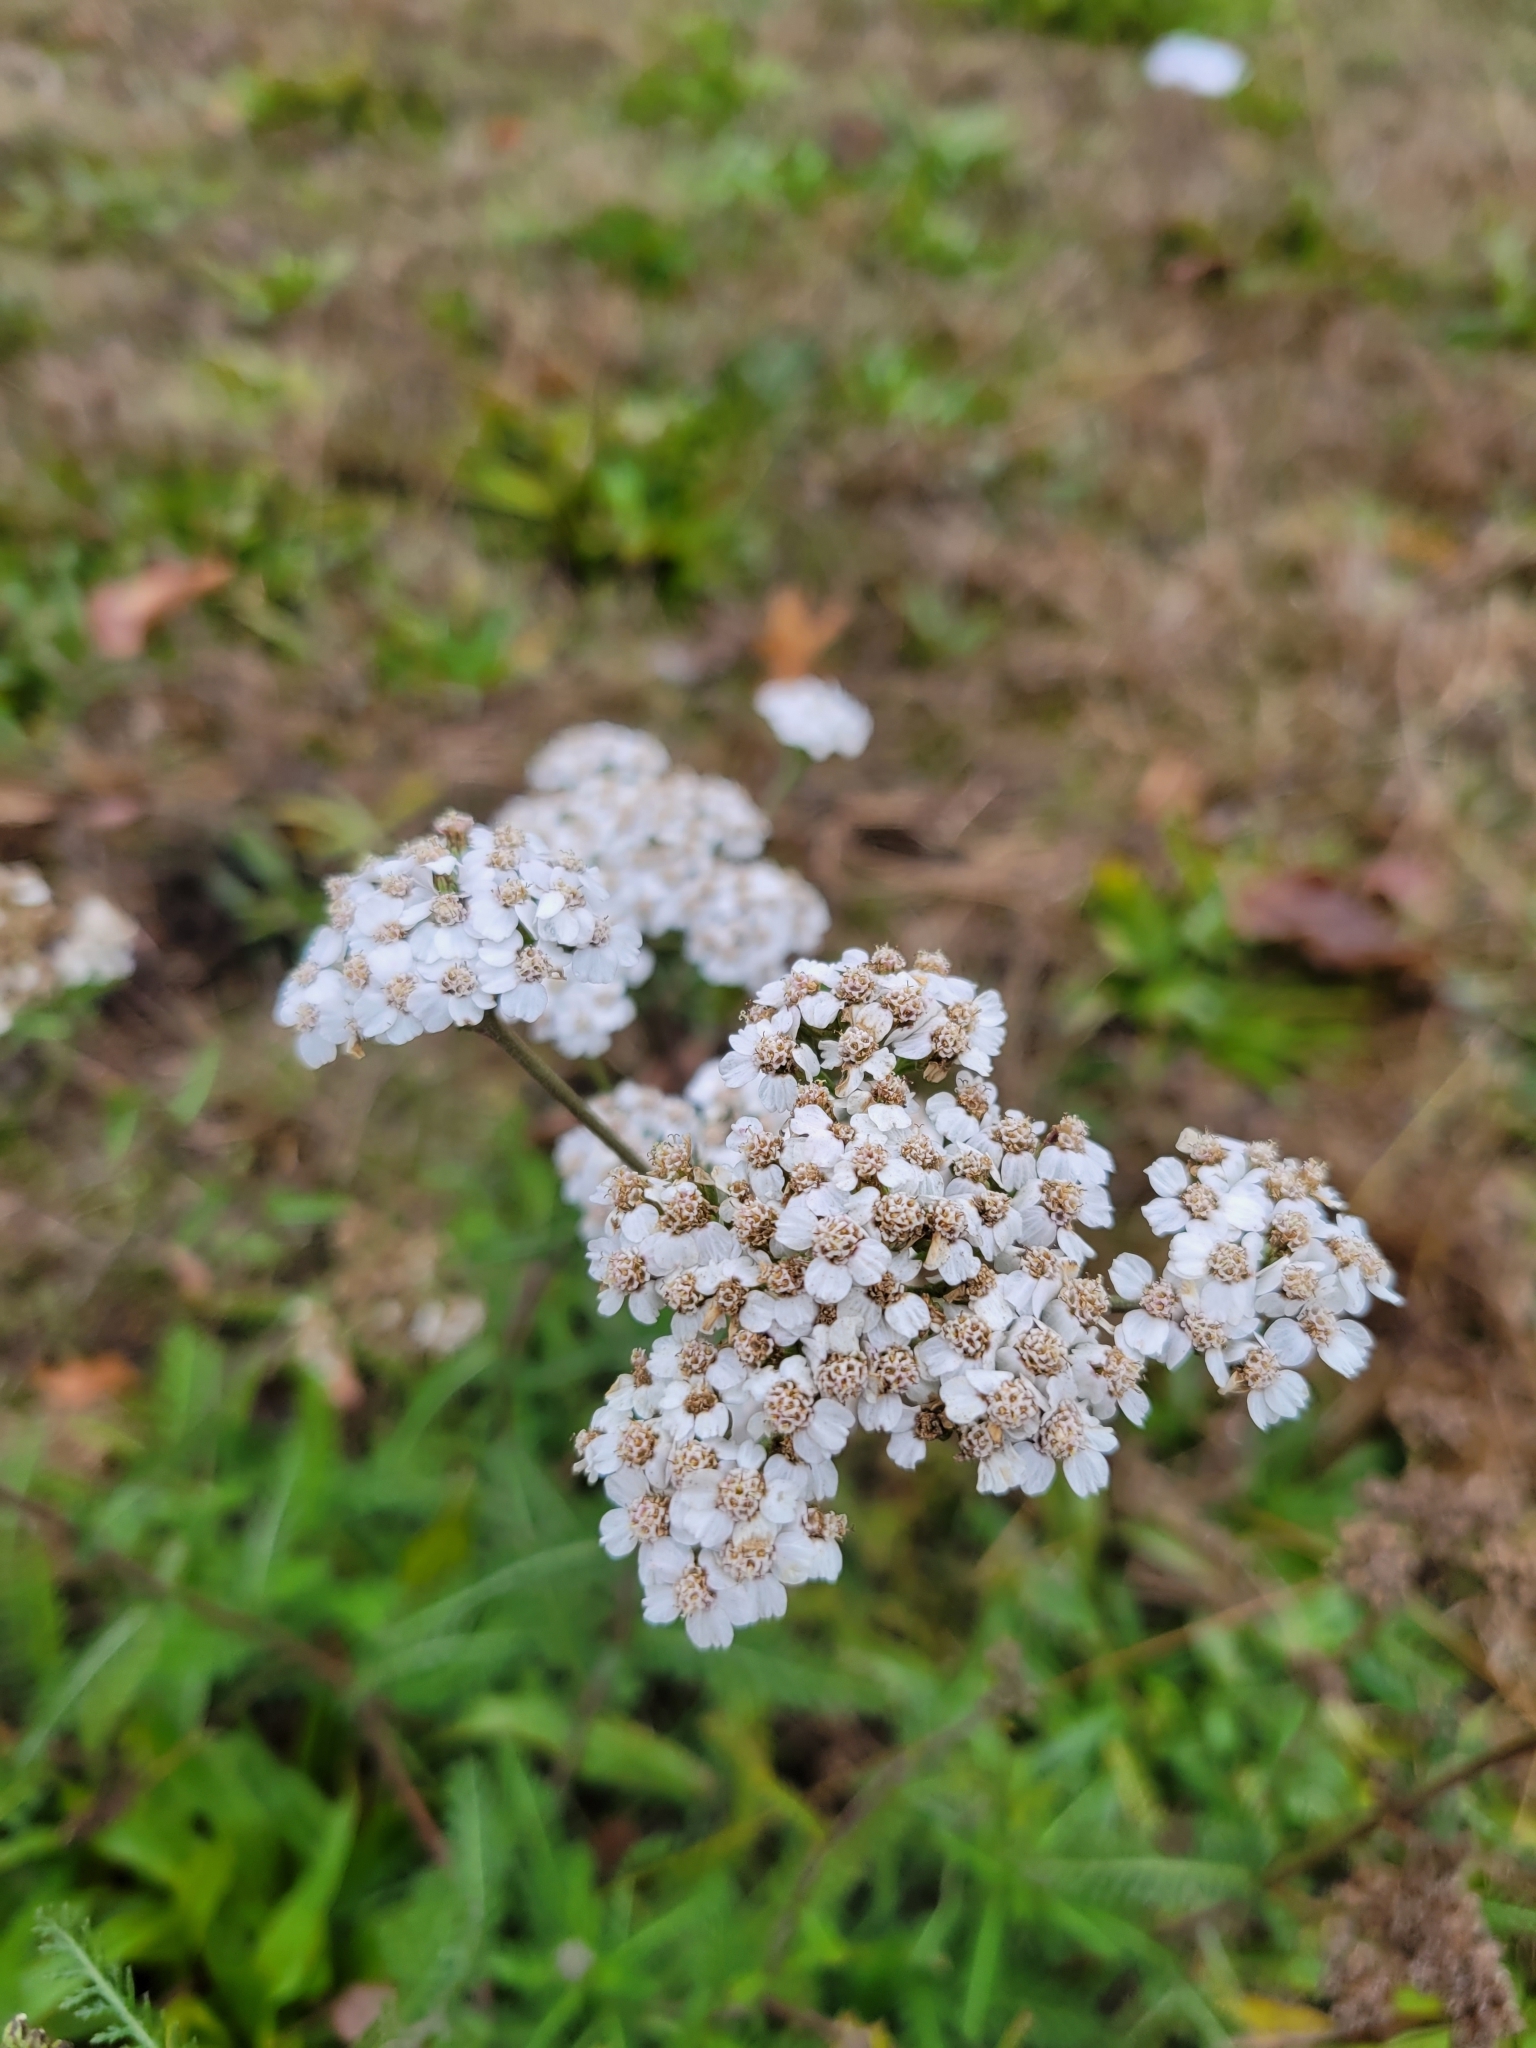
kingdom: Plantae
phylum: Tracheophyta
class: Magnoliopsida
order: Asterales
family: Asteraceae
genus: Achillea
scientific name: Achillea millefolium
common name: Yarrow
